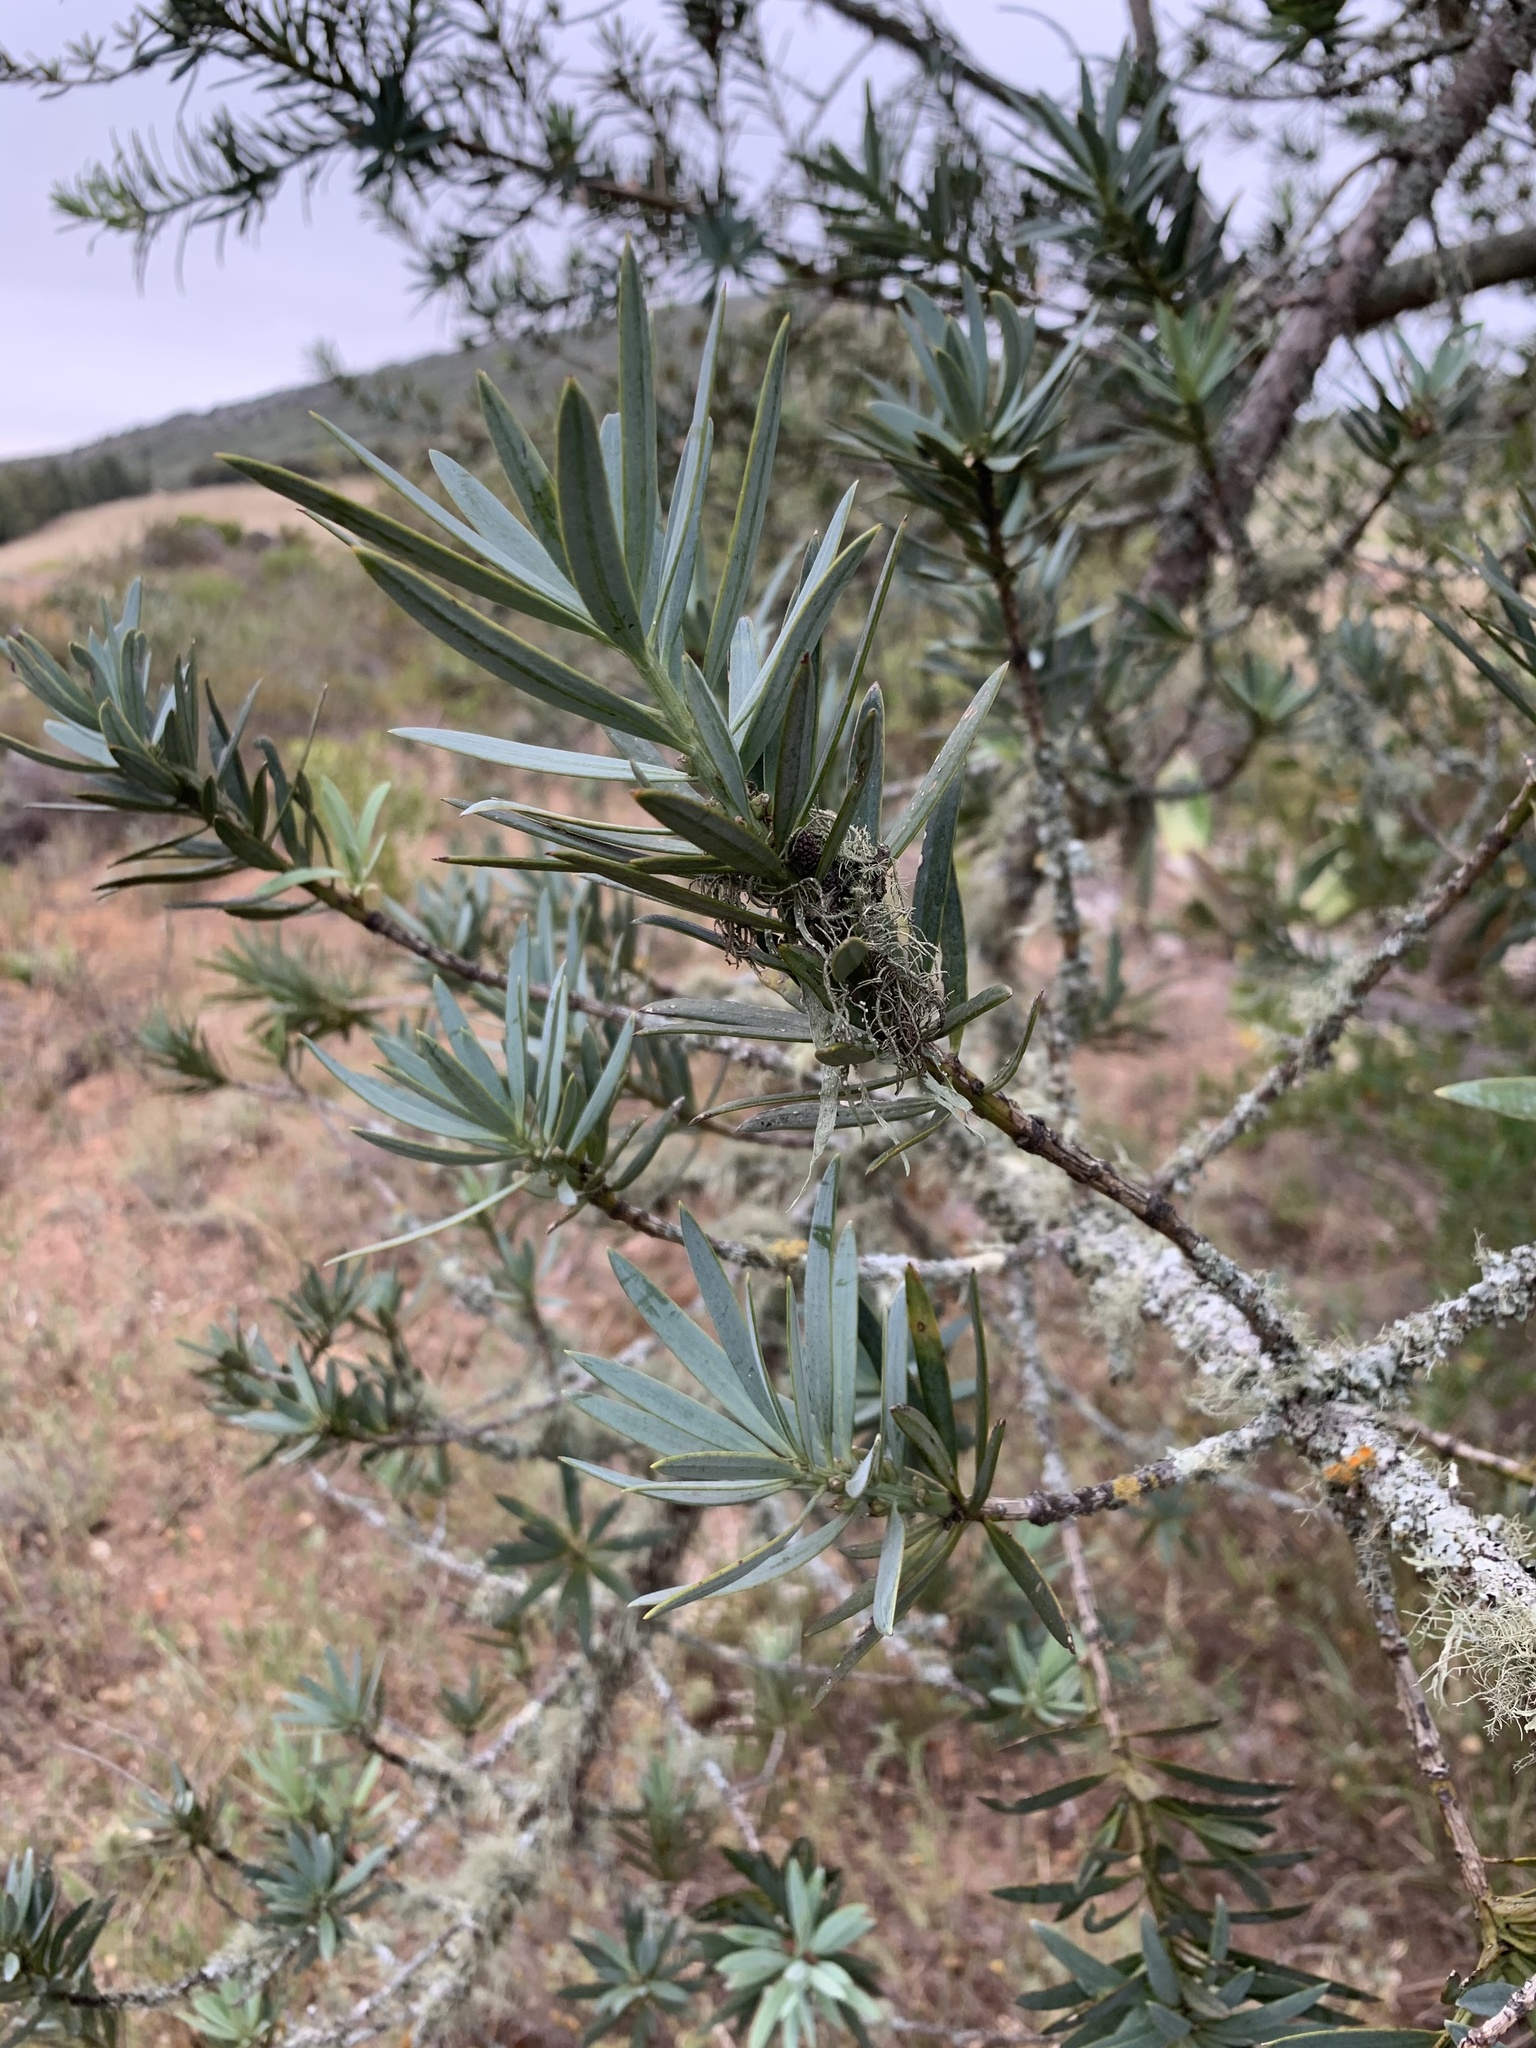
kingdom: Plantae
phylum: Tracheophyta
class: Pinopsida
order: Pinales
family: Podocarpaceae
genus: Podocarpus
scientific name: Podocarpus elongatus
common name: Breede river yellowwood
